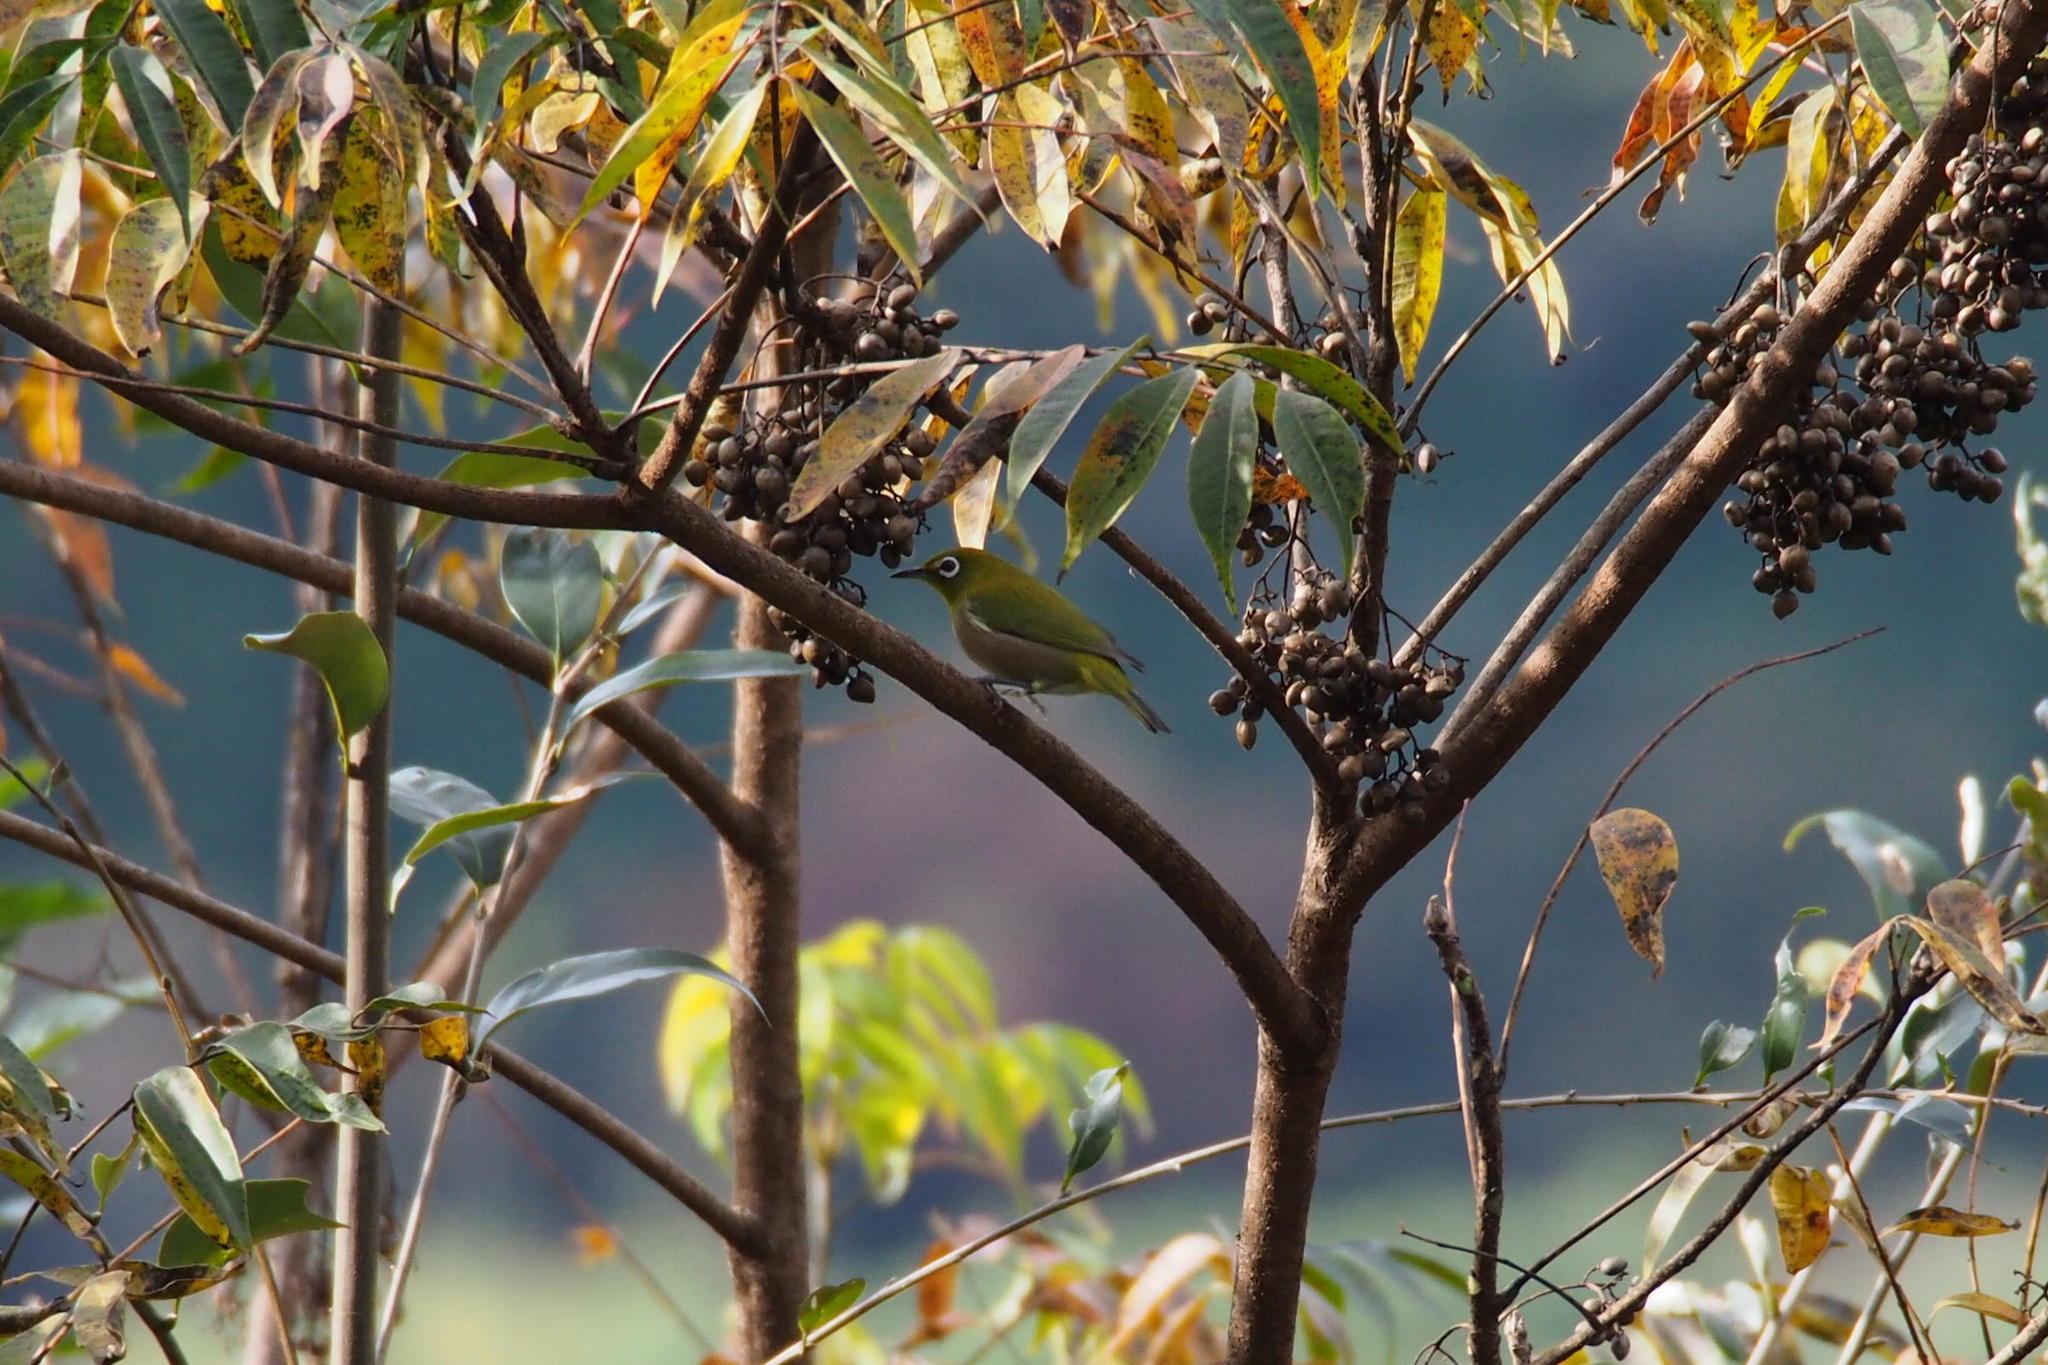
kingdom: Animalia
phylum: Chordata
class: Aves
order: Passeriformes
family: Zosteropidae
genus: Zosterops
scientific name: Zosterops japonicus
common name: Japanese white-eye
